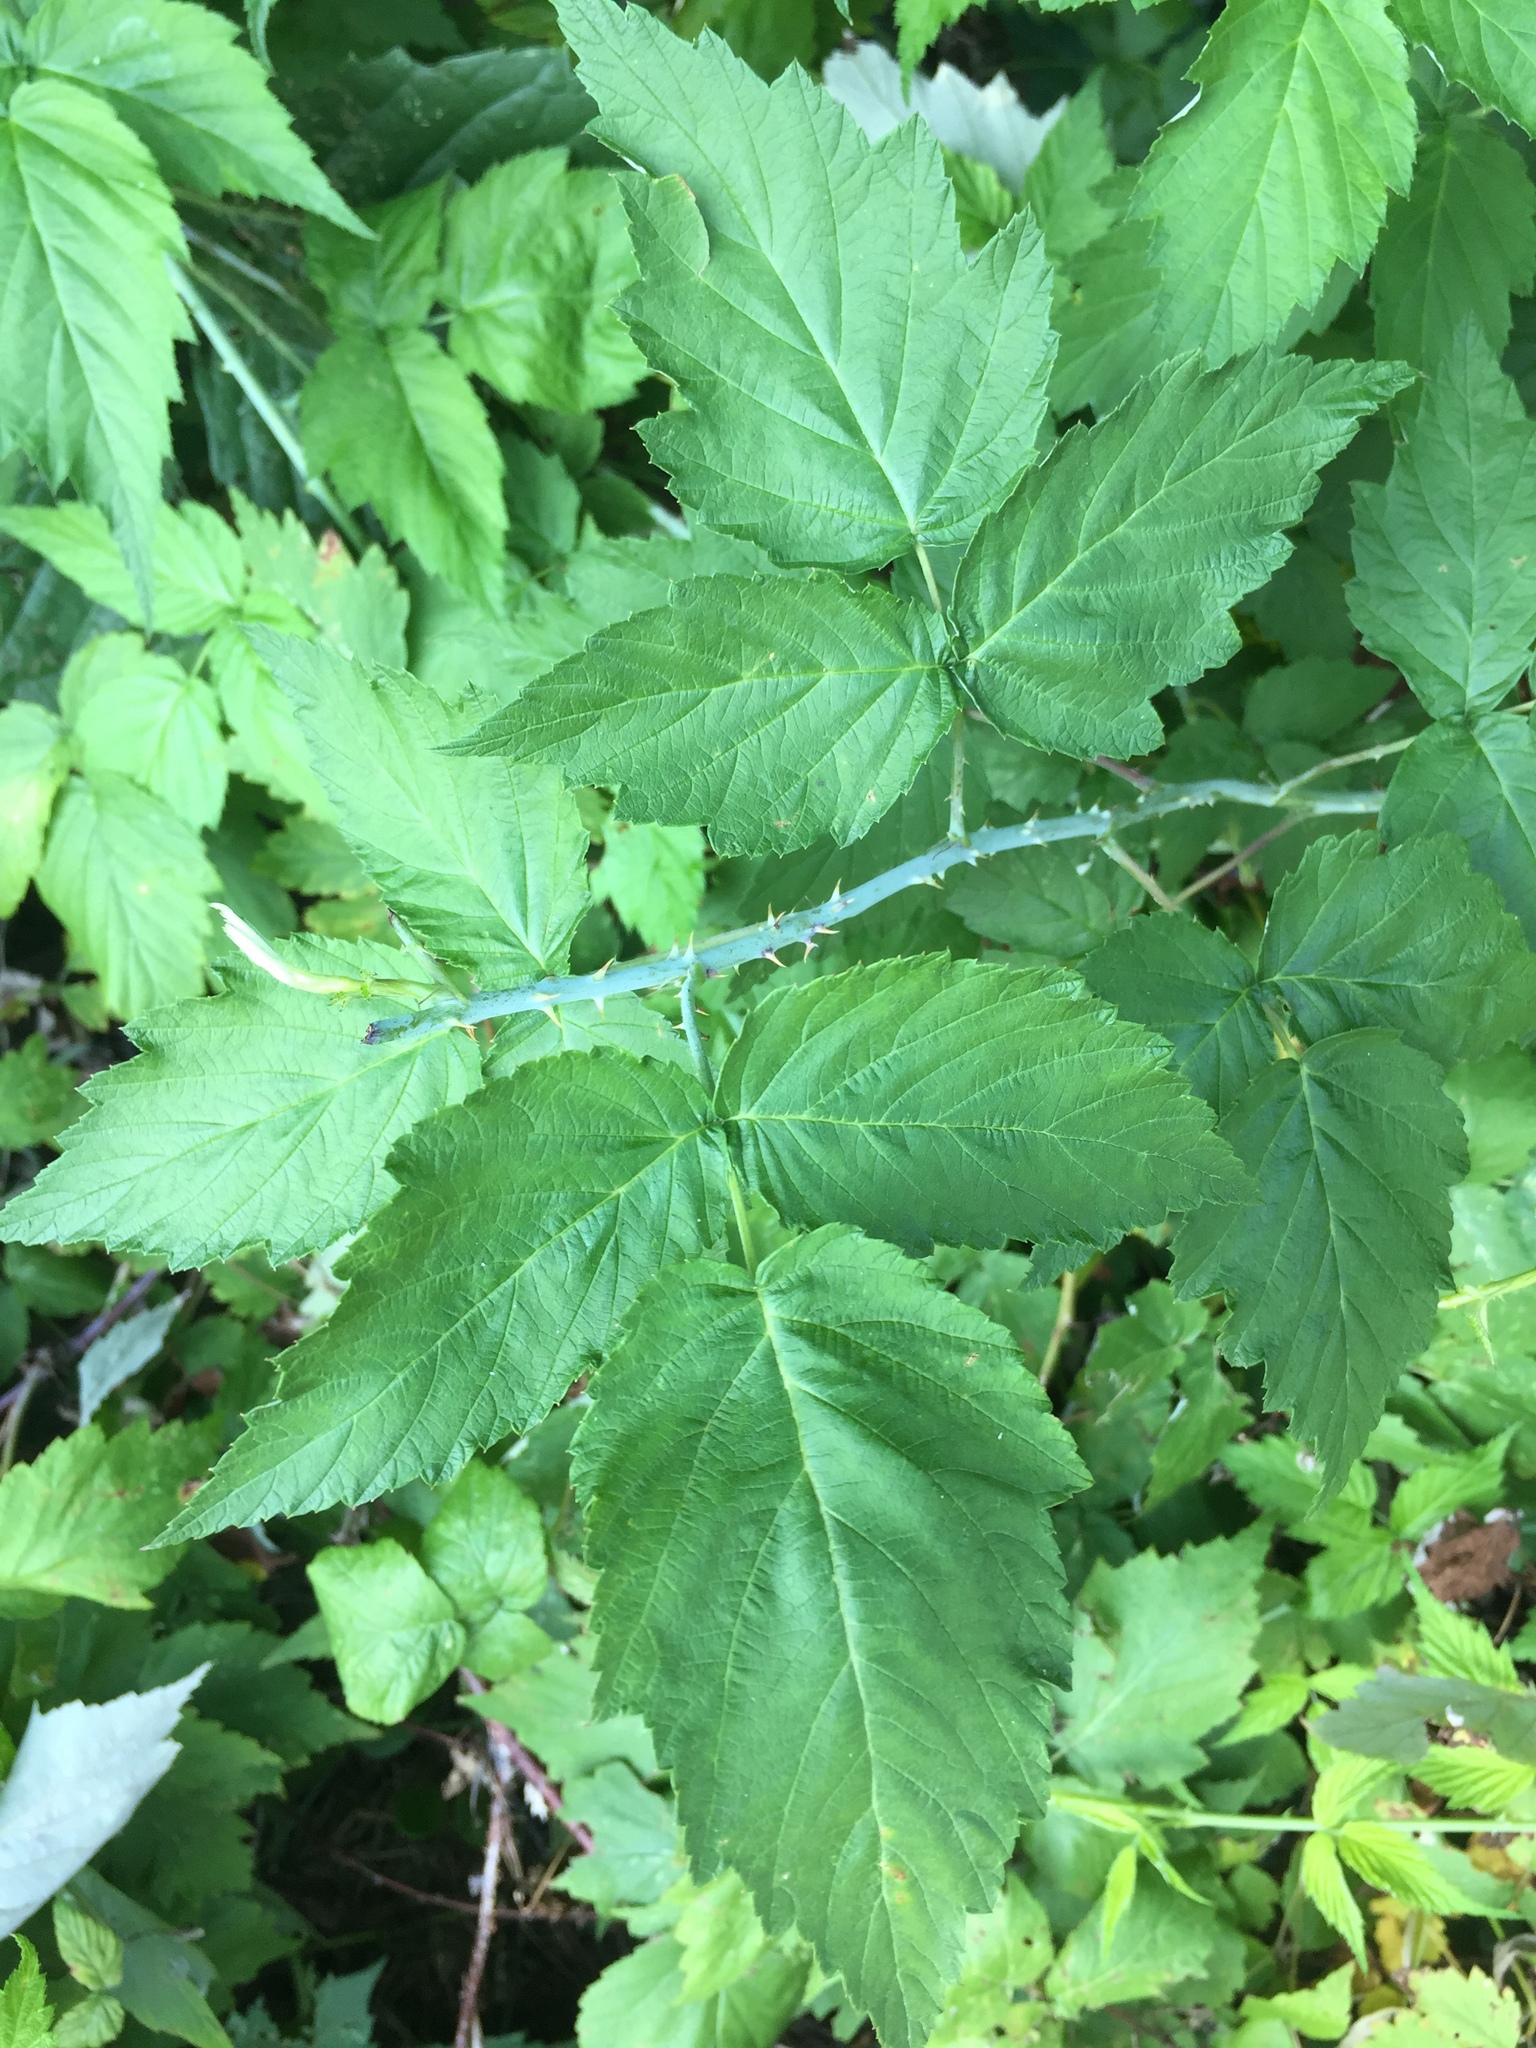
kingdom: Plantae
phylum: Tracheophyta
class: Magnoliopsida
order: Rosales
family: Rosaceae
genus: Rubus
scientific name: Rubus occidentalis
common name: Black raspberry
